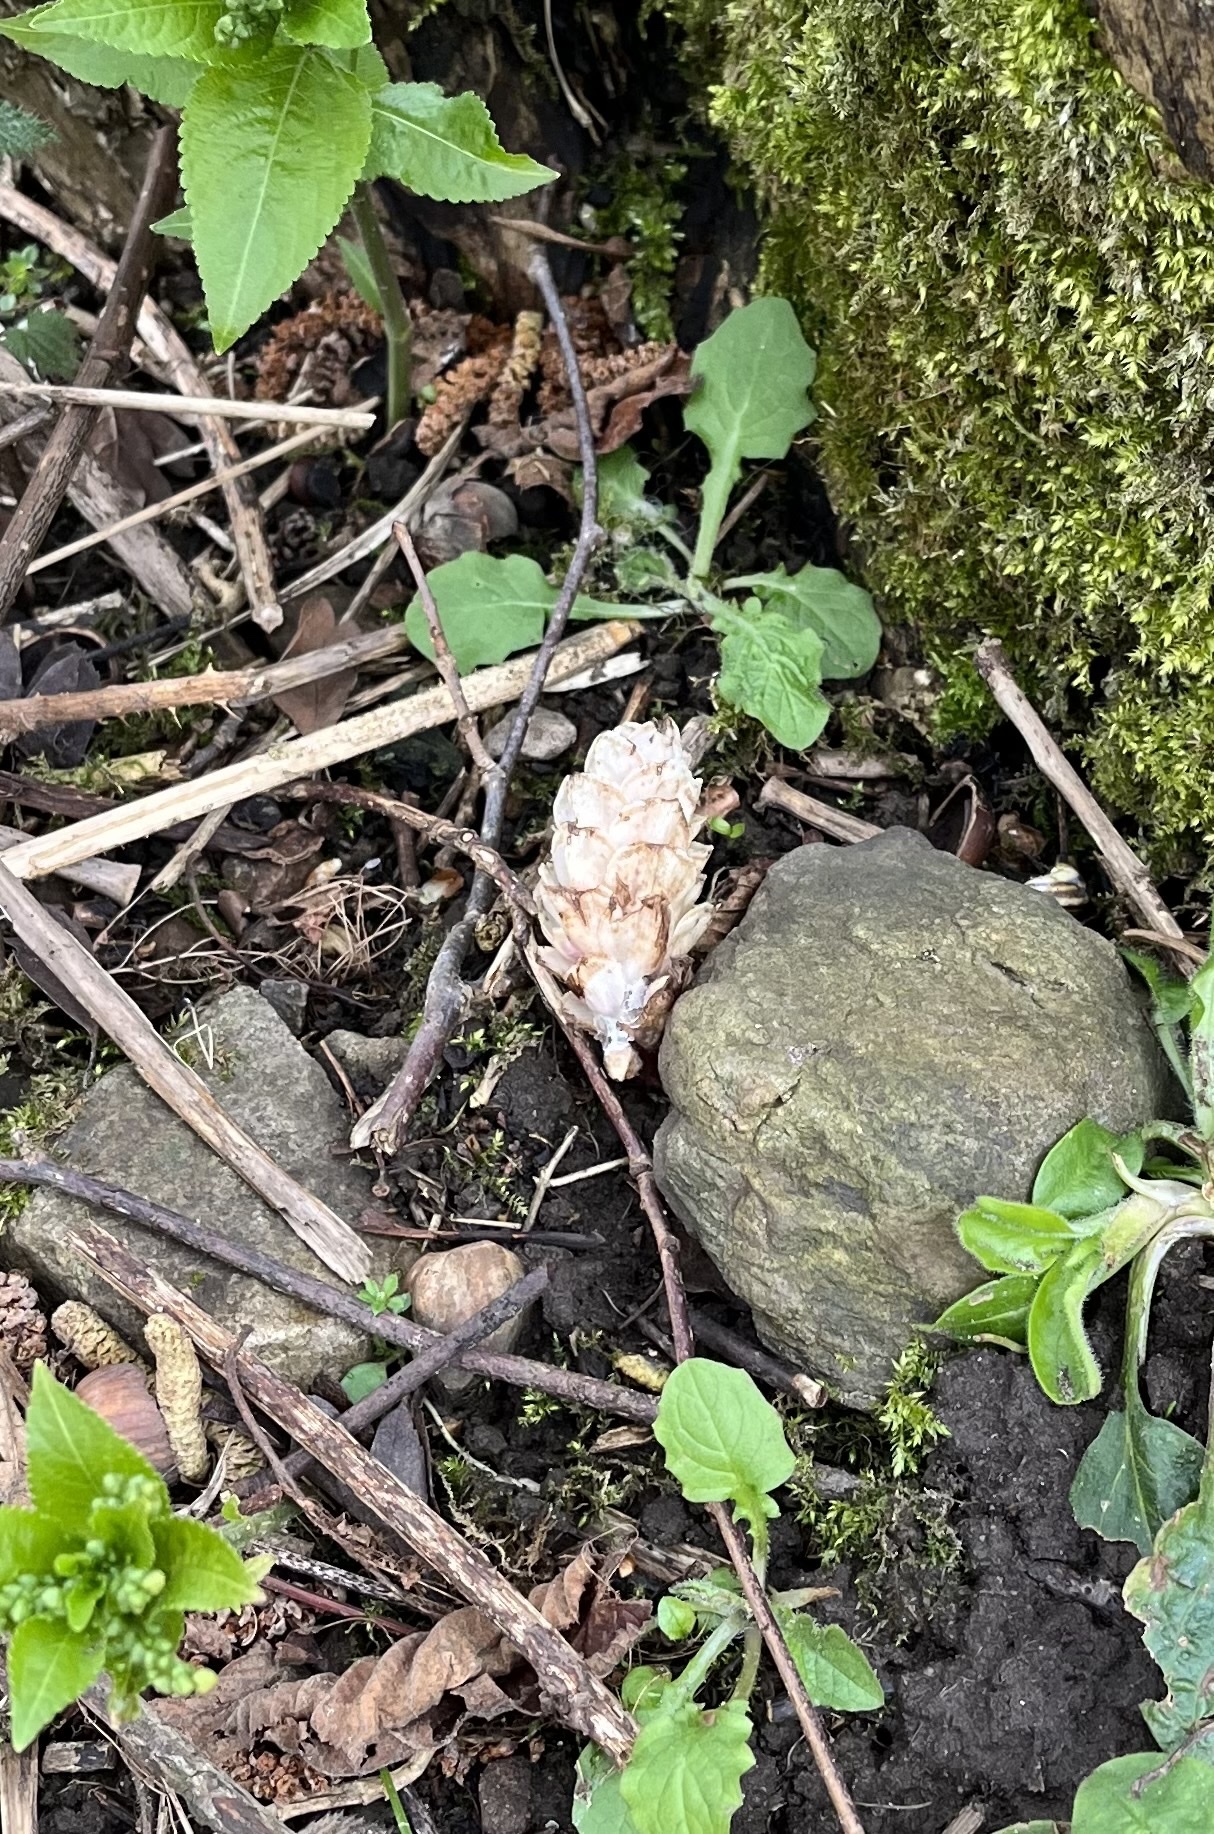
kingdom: Plantae
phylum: Tracheophyta
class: Magnoliopsida
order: Lamiales
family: Orobanchaceae
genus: Lathraea
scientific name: Lathraea squamaria
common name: Toothwort
